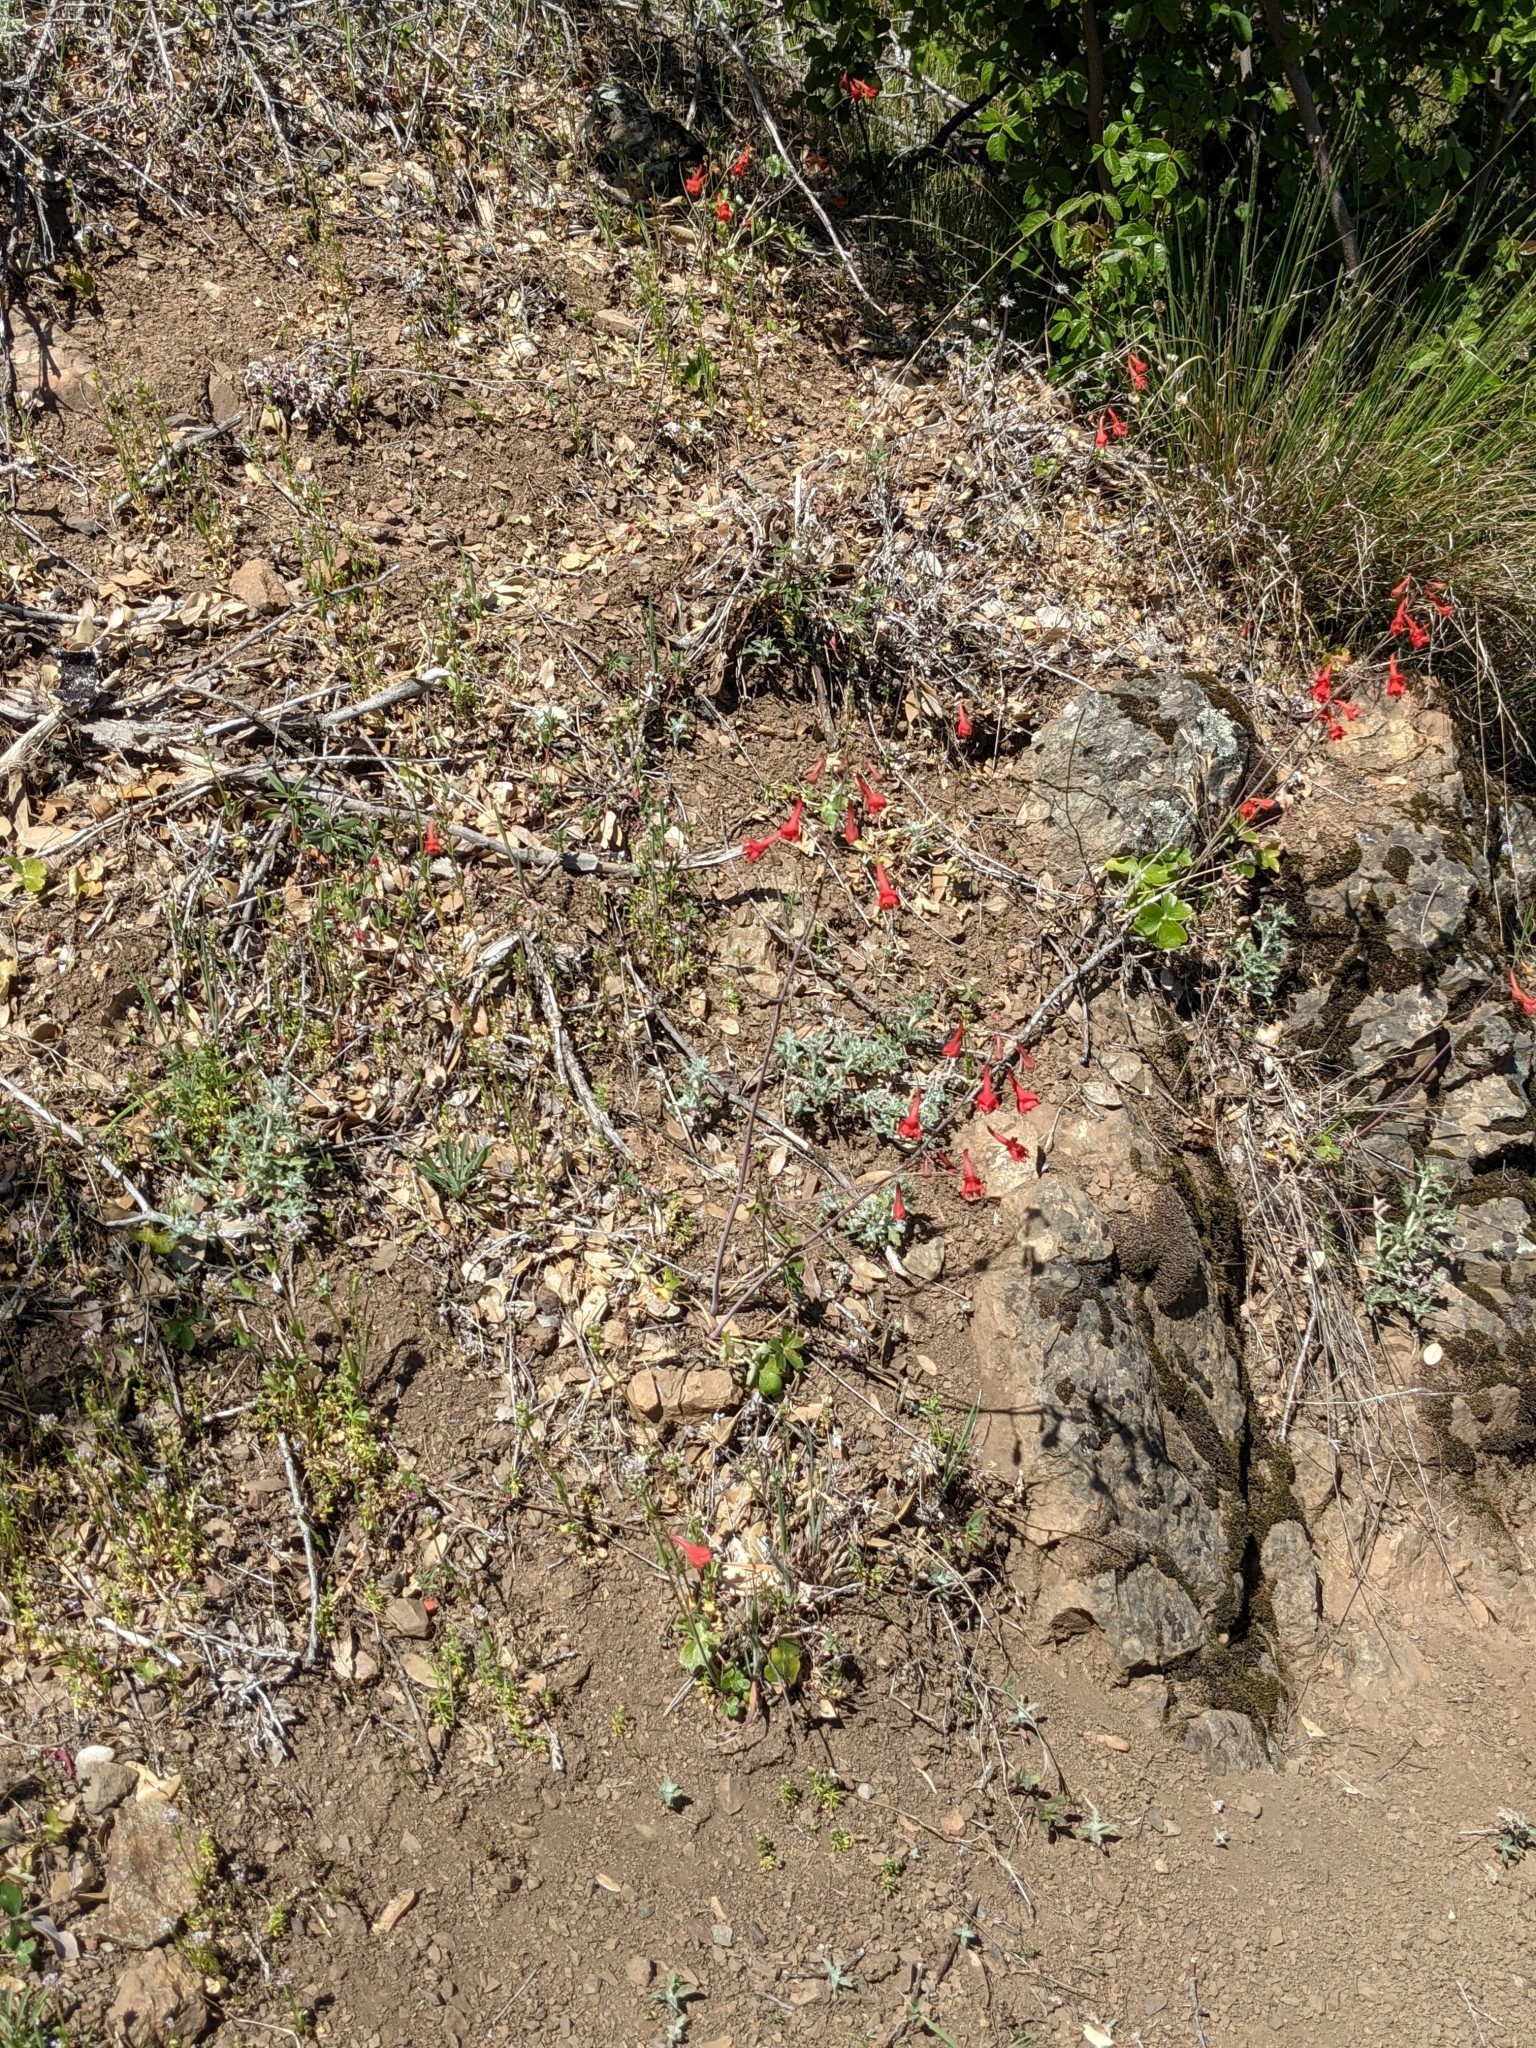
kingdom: Plantae
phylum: Tracheophyta
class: Magnoliopsida
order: Ranunculales
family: Ranunculaceae
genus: Delphinium
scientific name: Delphinium nudicaule
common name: Red larkspur
